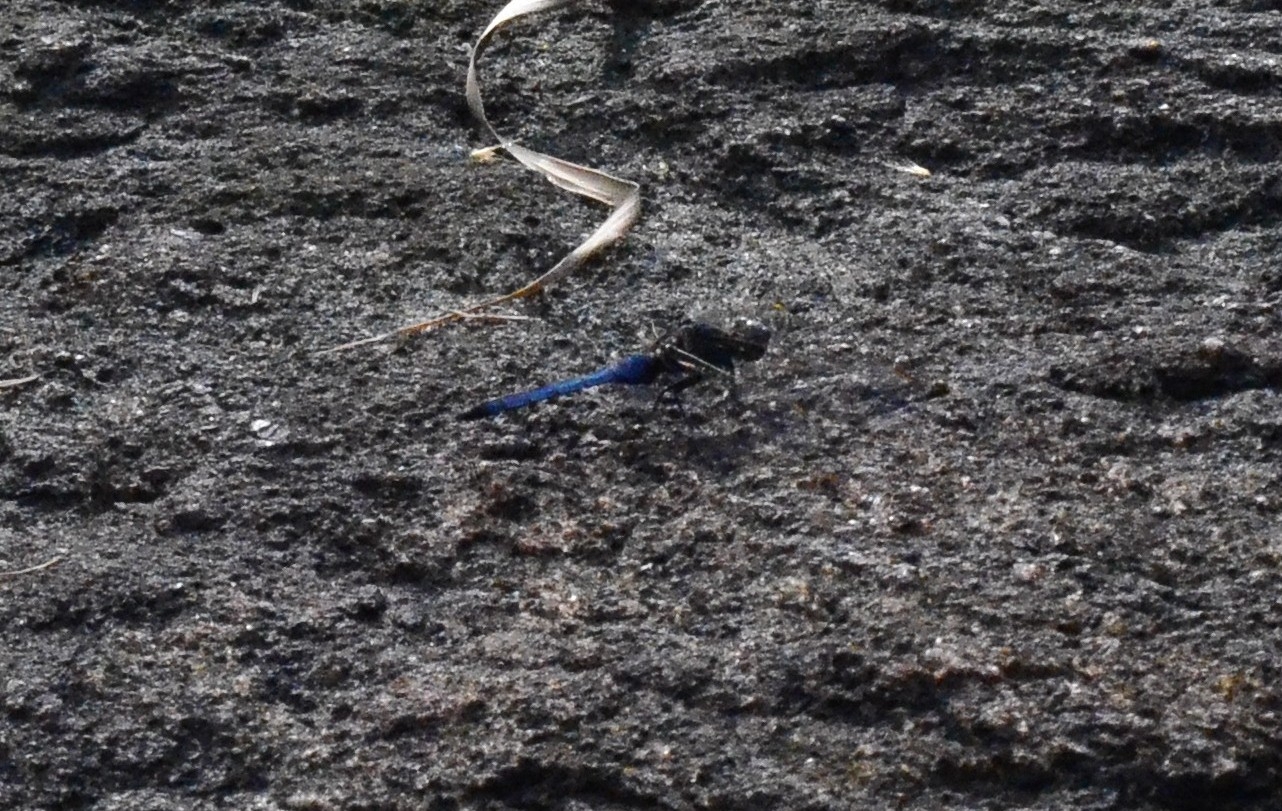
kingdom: Animalia
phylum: Arthropoda
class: Insecta
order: Odonata
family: Libellulidae
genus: Orthetrum
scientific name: Orthetrum glaucum
